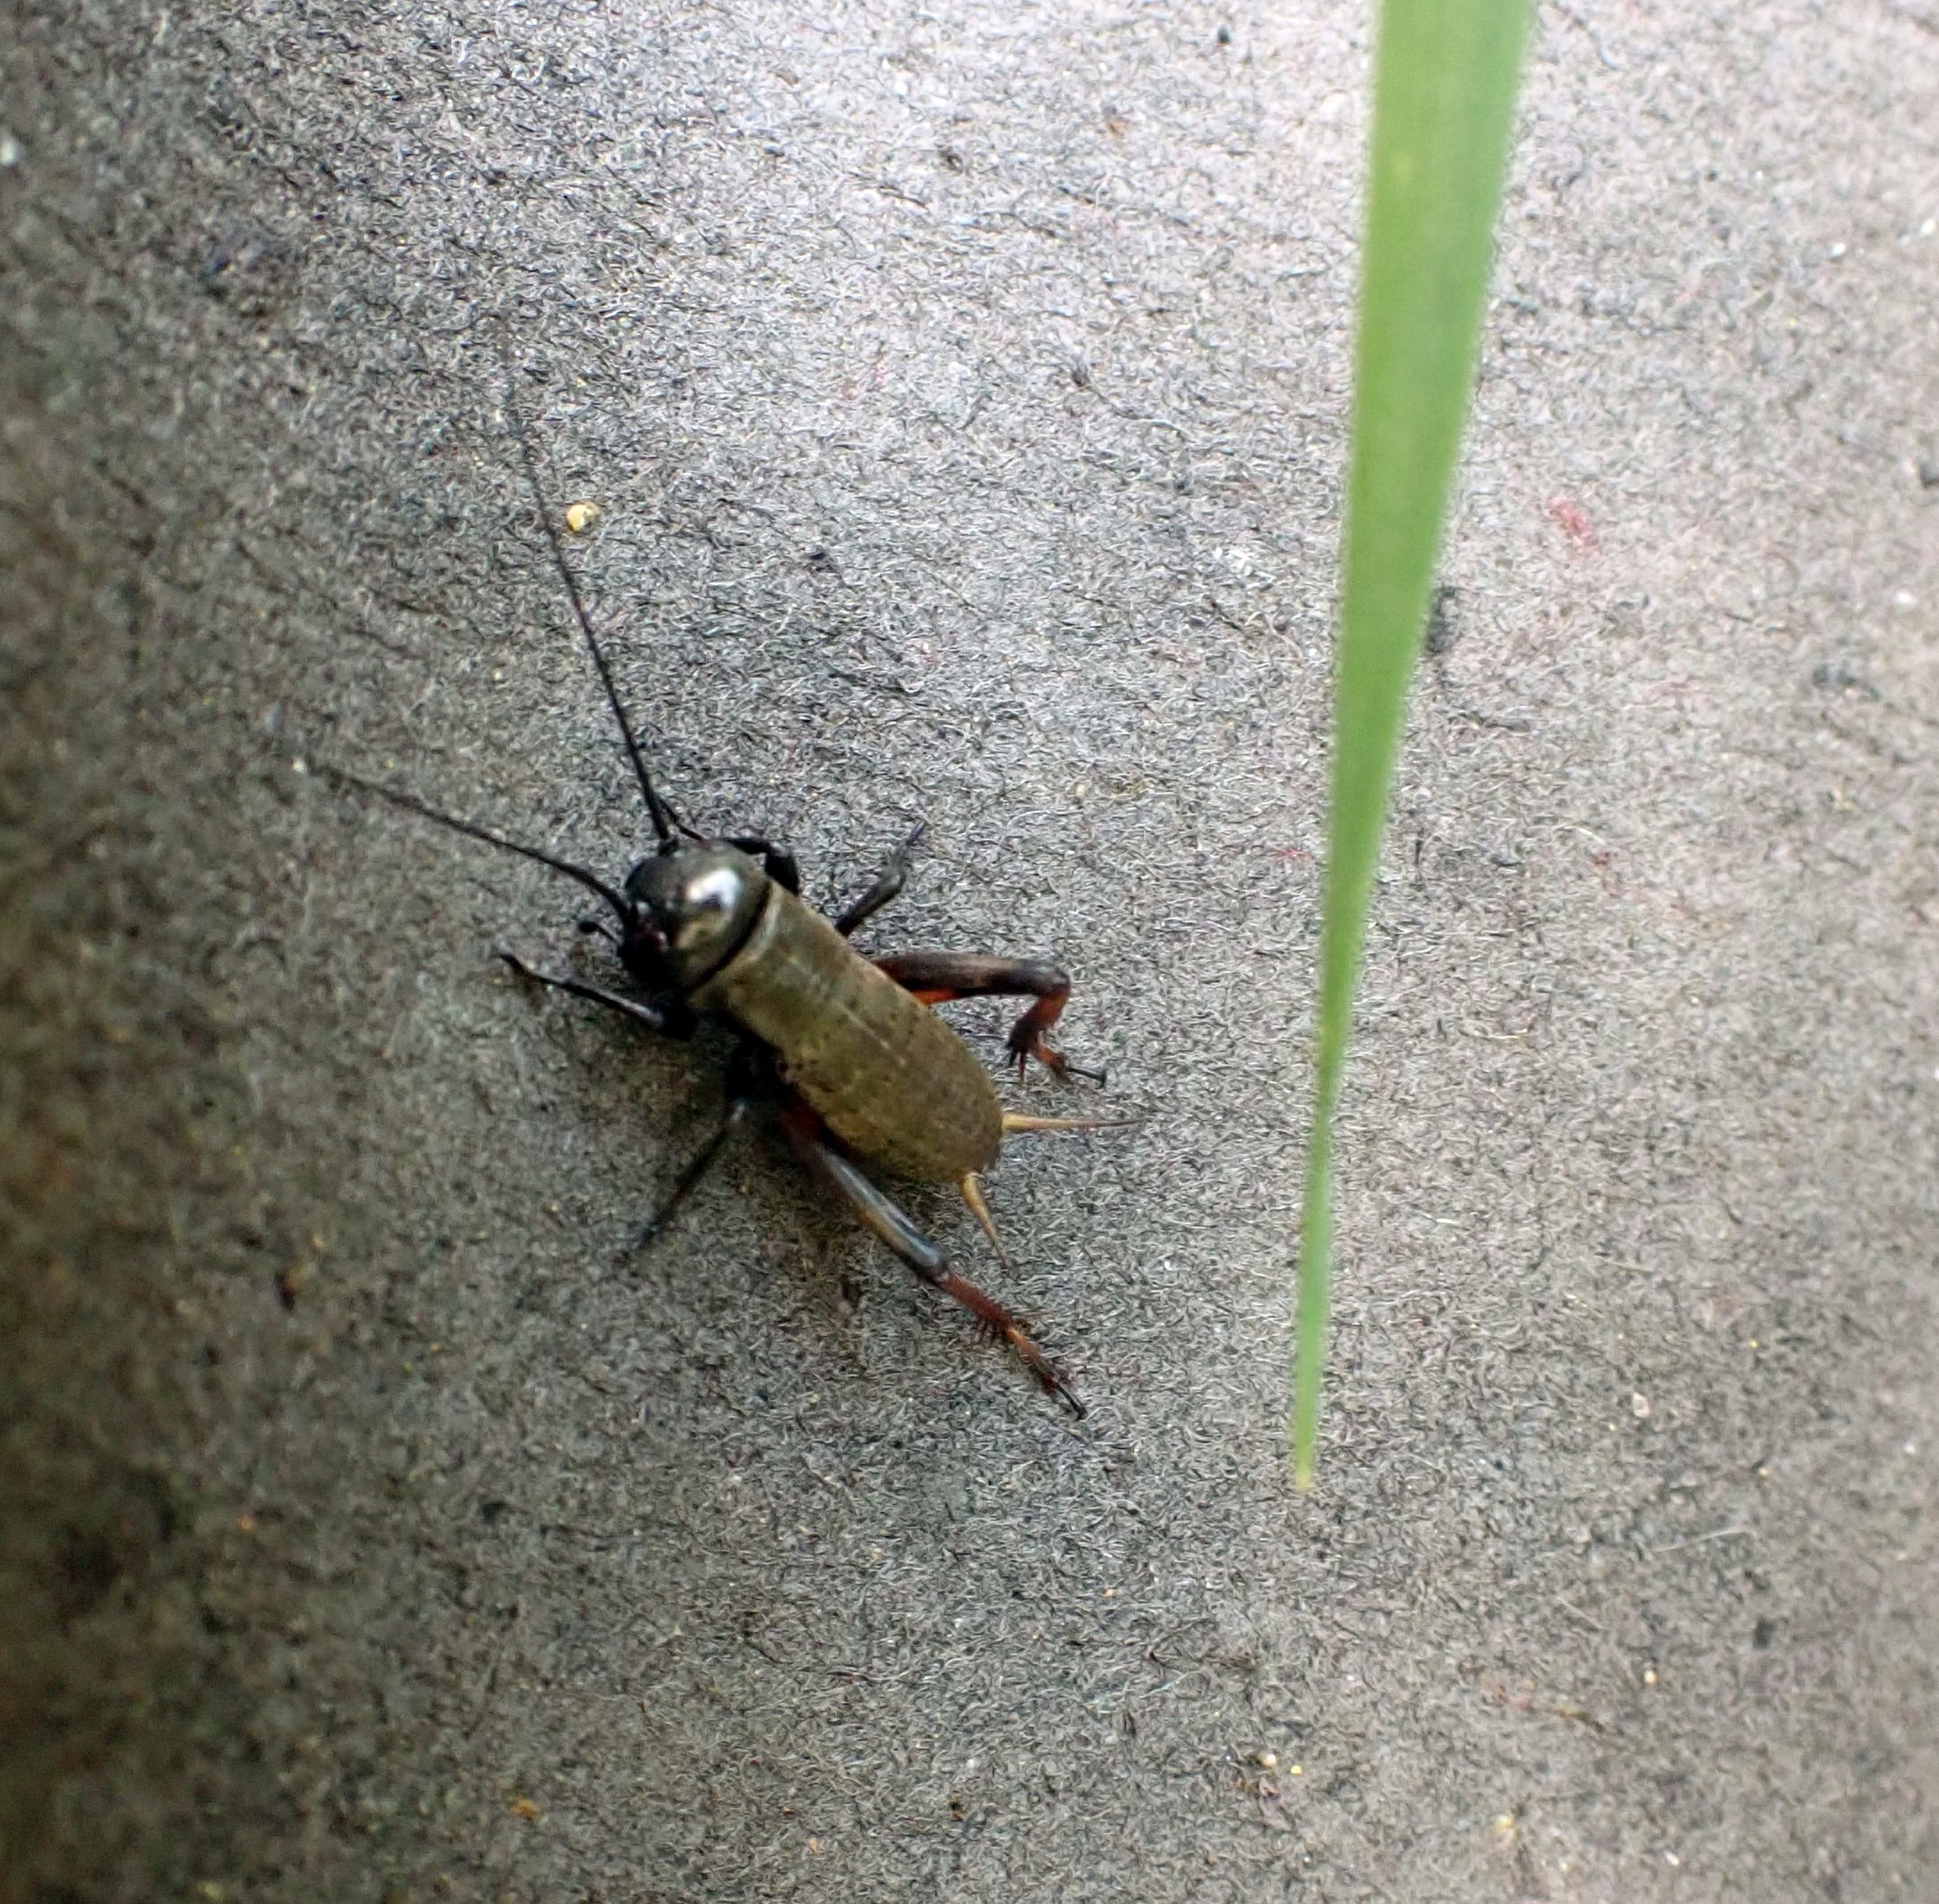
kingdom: Animalia
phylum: Arthropoda
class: Insecta
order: Orthoptera
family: Gryllidae
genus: Gryllus
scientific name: Gryllus campestris
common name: Field cricket
